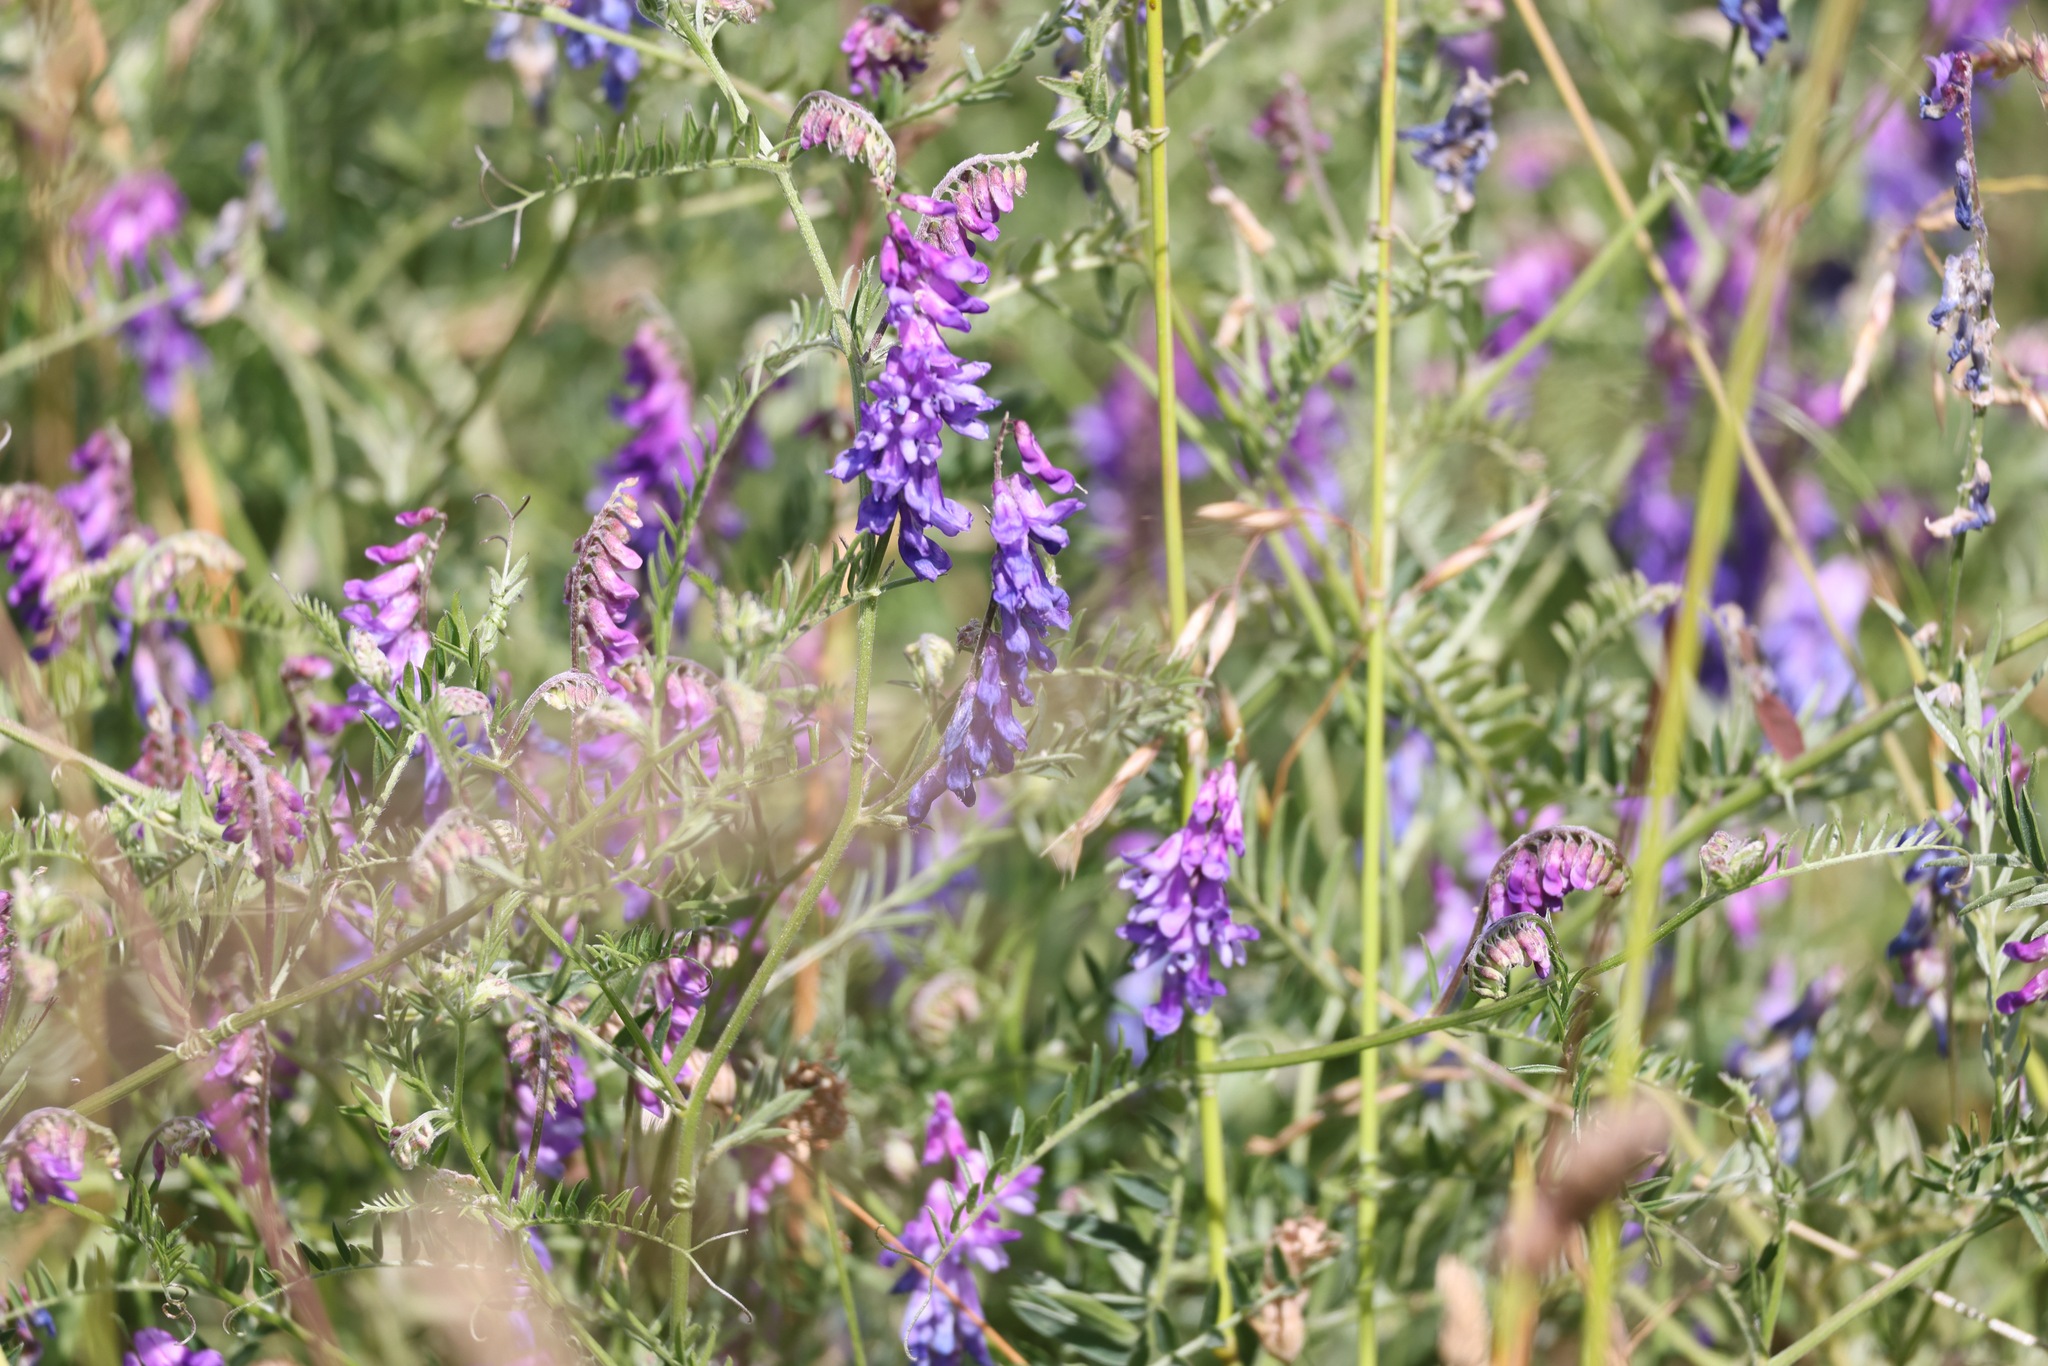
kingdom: Plantae
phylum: Tracheophyta
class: Magnoliopsida
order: Fabales
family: Fabaceae
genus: Vicia
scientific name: Vicia cracca
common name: Bird vetch
